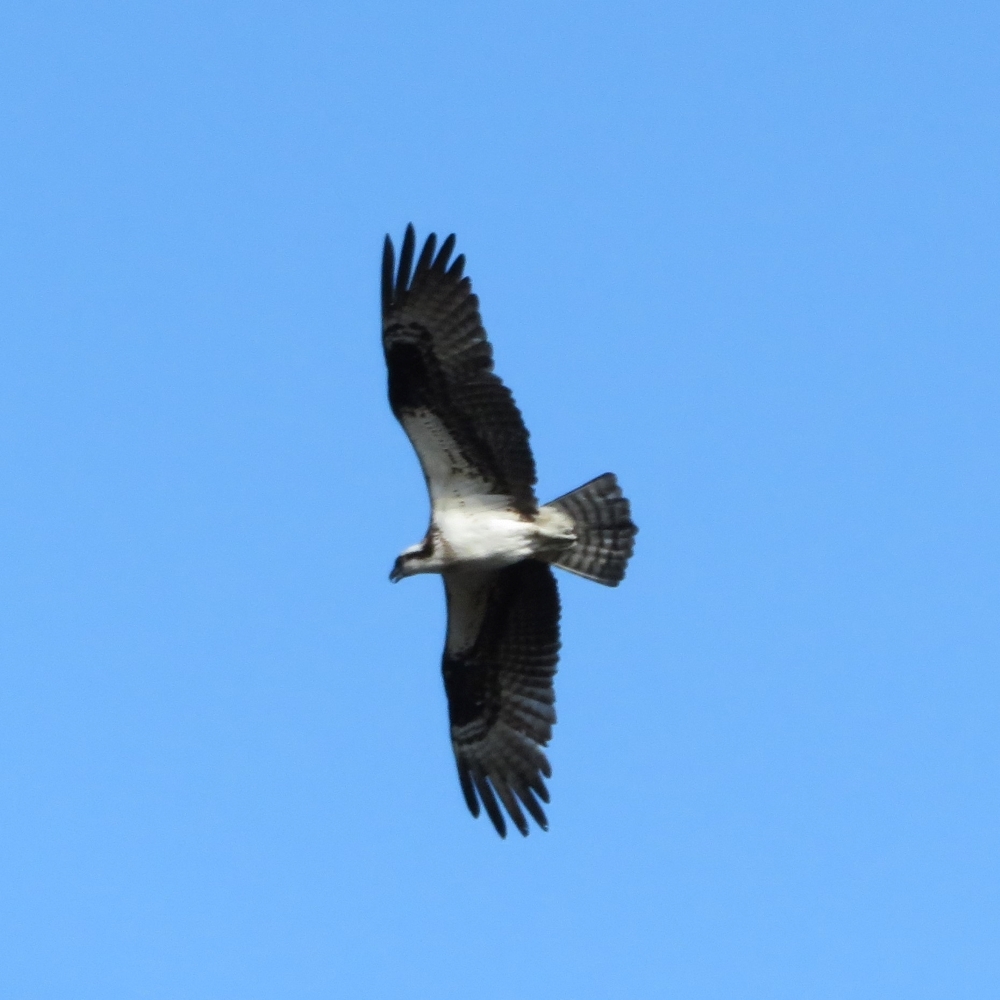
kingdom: Animalia
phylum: Chordata
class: Aves
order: Accipitriformes
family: Pandionidae
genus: Pandion
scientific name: Pandion haliaetus
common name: Osprey
